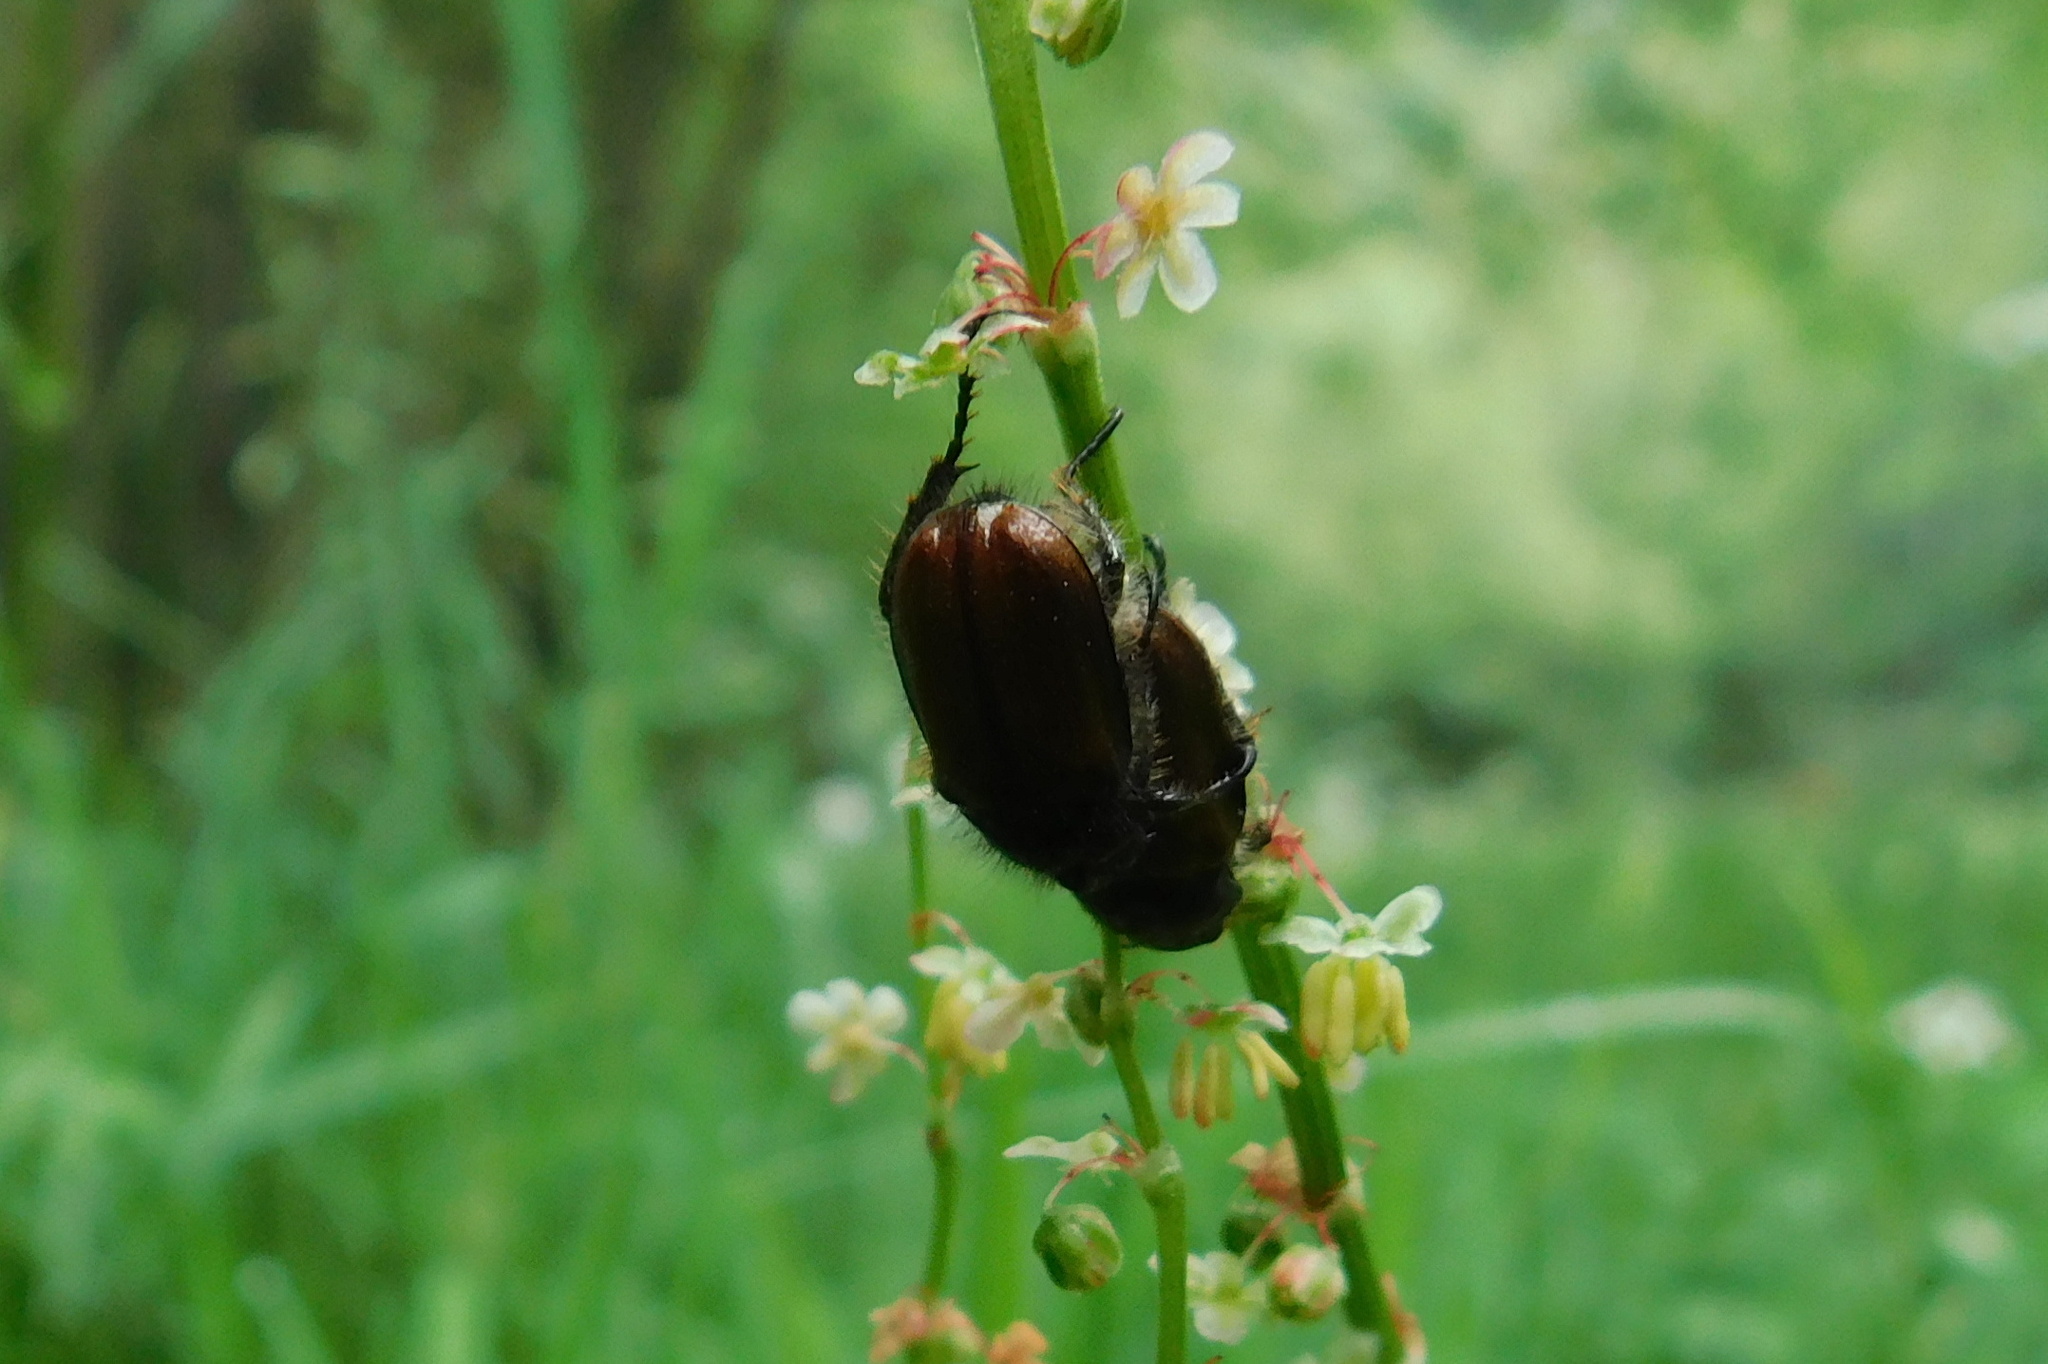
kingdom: Animalia
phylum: Arthropoda
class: Insecta
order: Coleoptera
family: Scarabaeidae
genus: Phyllopertha
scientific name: Phyllopertha horticola
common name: Garden chafer
